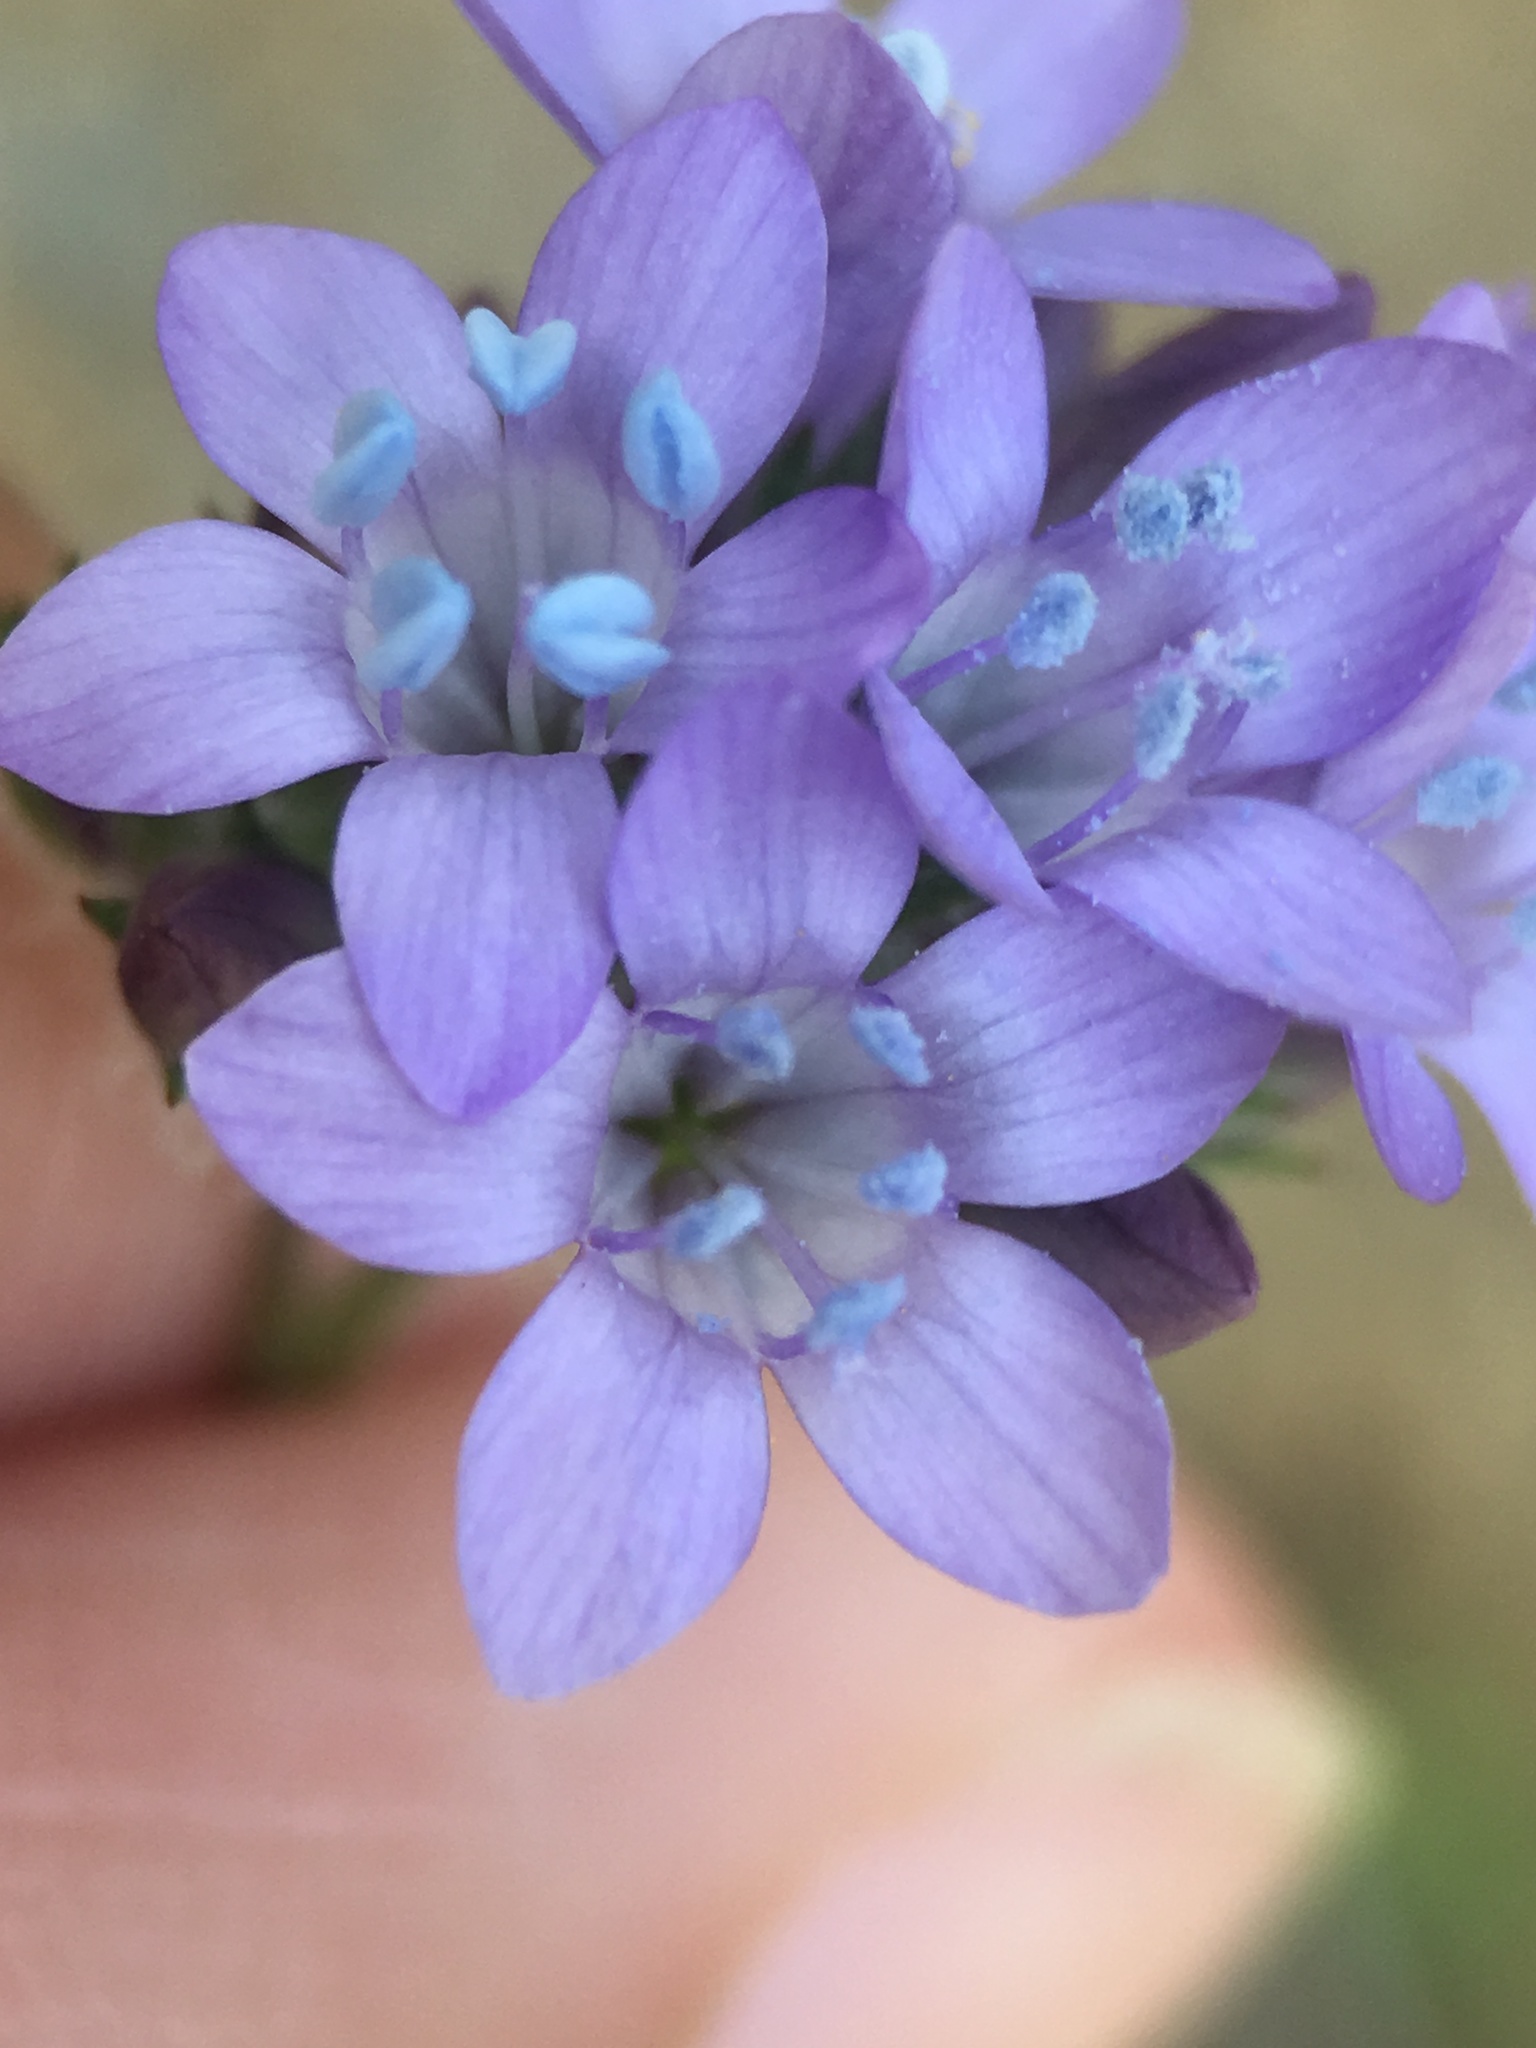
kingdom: Plantae
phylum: Tracheophyta
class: Magnoliopsida
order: Ericales
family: Polemoniaceae
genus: Gilia
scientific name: Gilia achilleifolia
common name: California gily-flower
